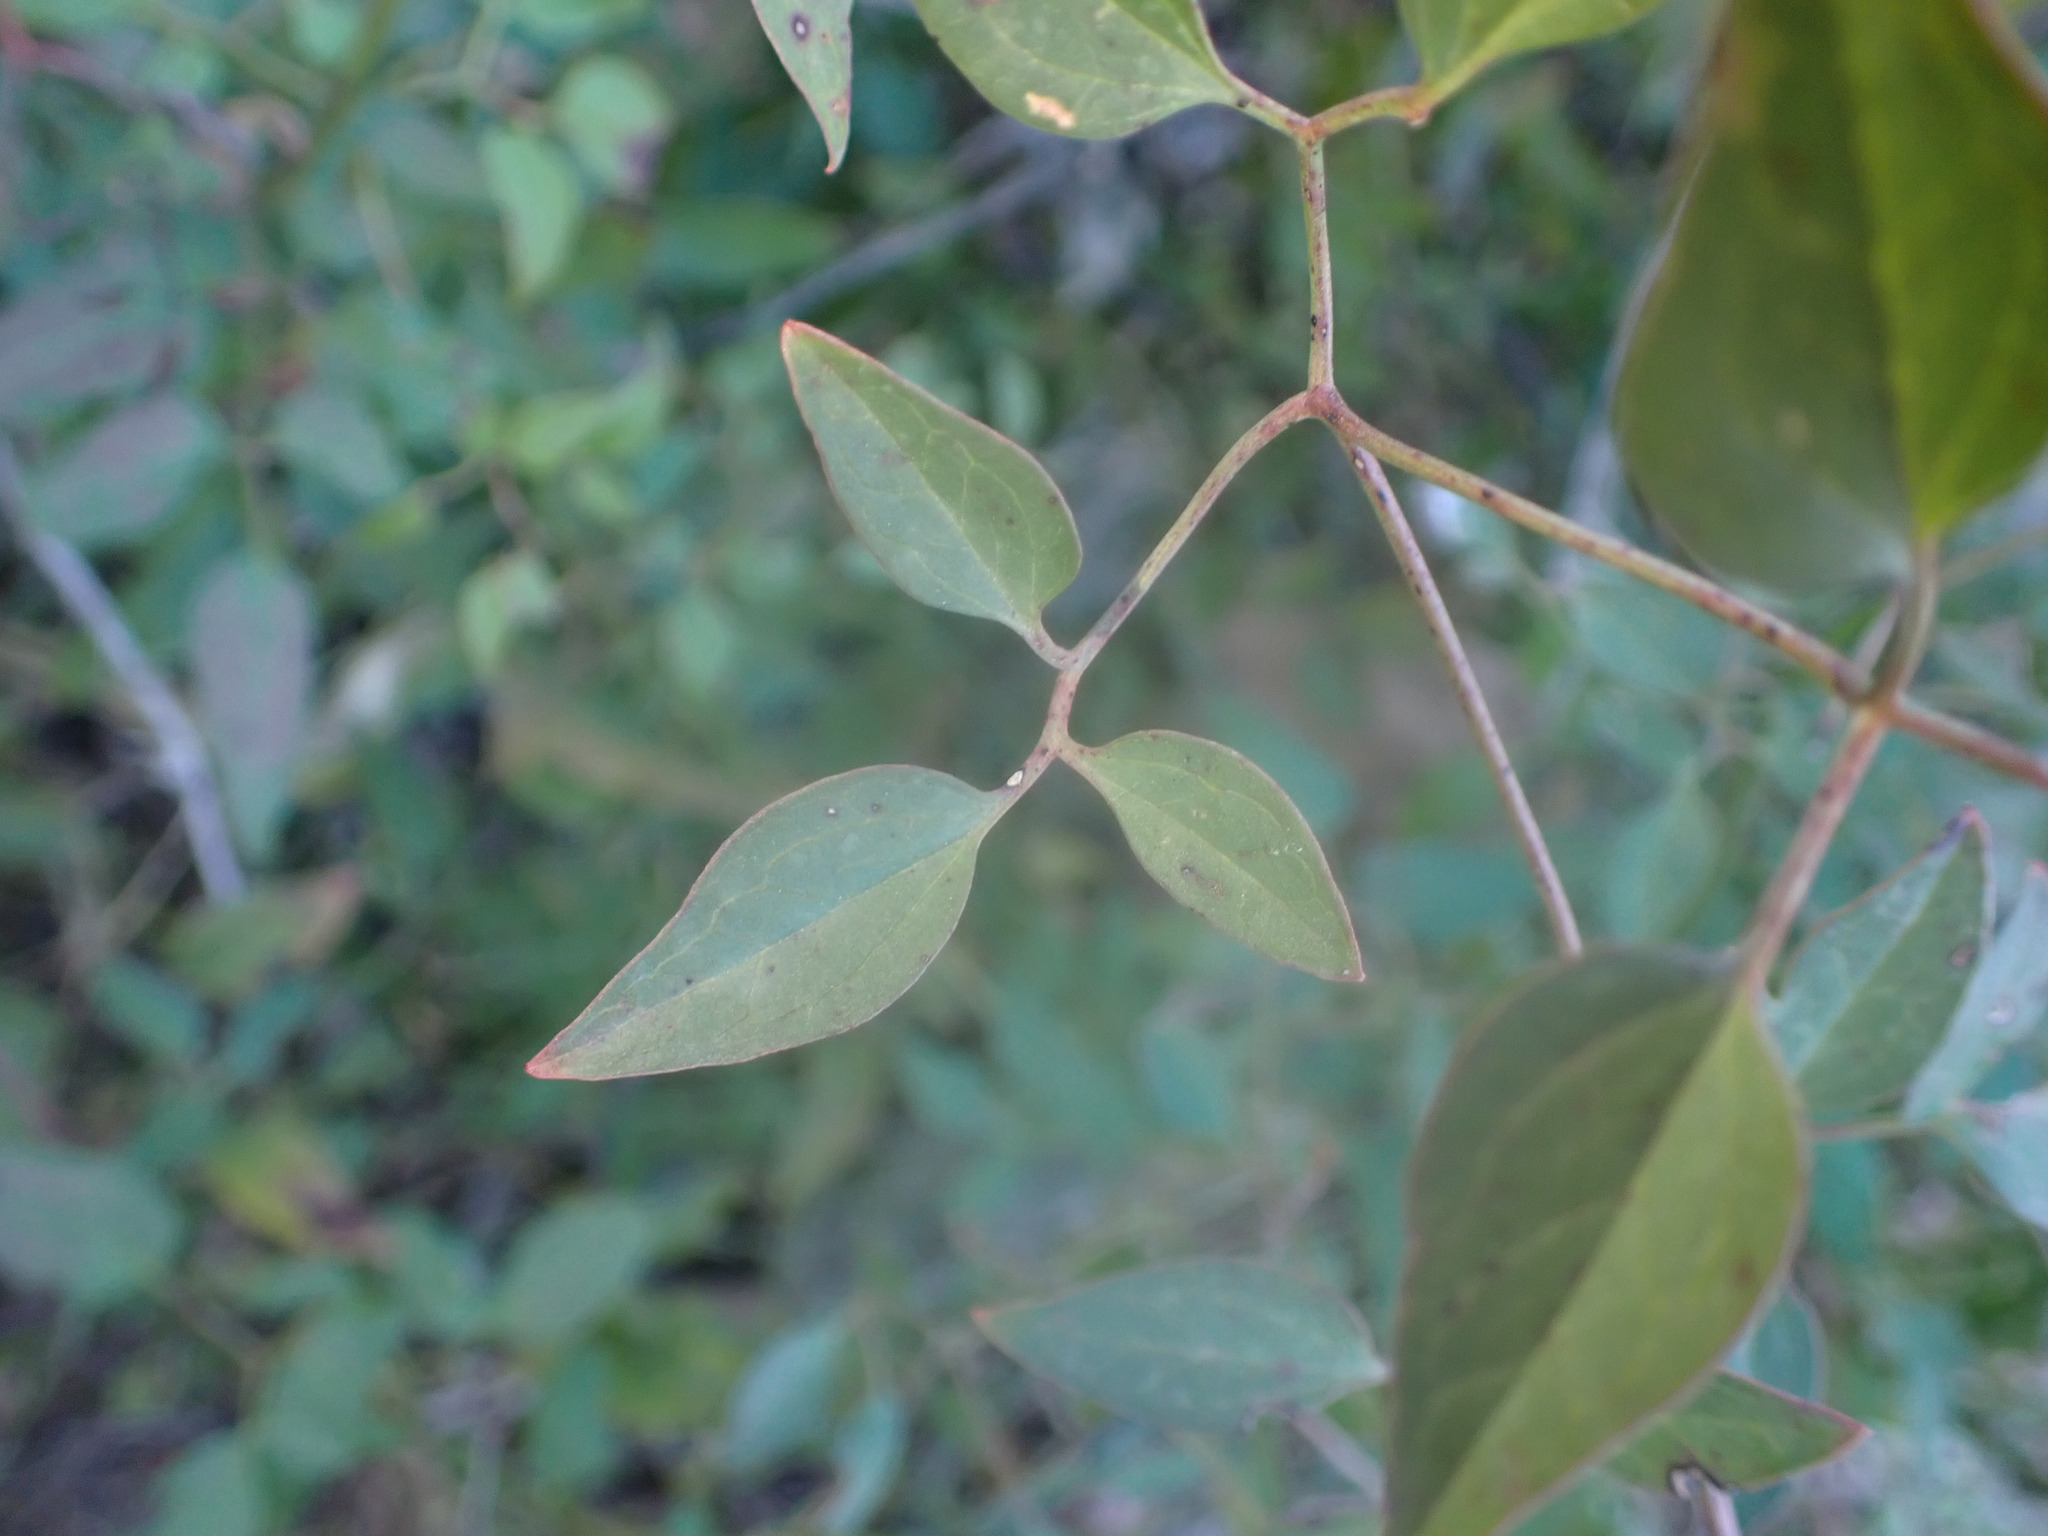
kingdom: Plantae
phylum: Tracheophyta
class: Magnoliopsida
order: Ranunculales
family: Ranunculaceae
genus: Clematis
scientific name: Clematis flammula
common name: Virgin's-bower
